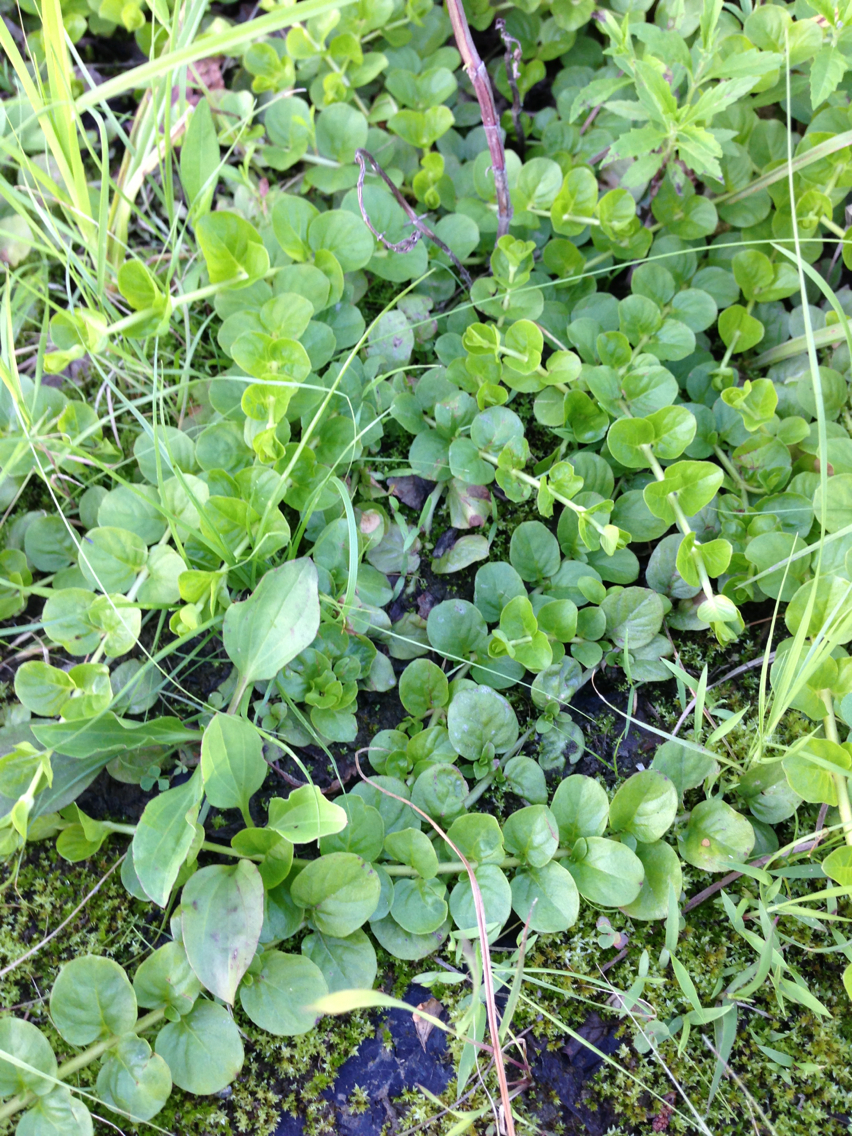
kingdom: Plantae
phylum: Tracheophyta
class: Magnoliopsida
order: Ericales
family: Primulaceae
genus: Lysimachia
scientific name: Lysimachia nummularia
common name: Moneywort
